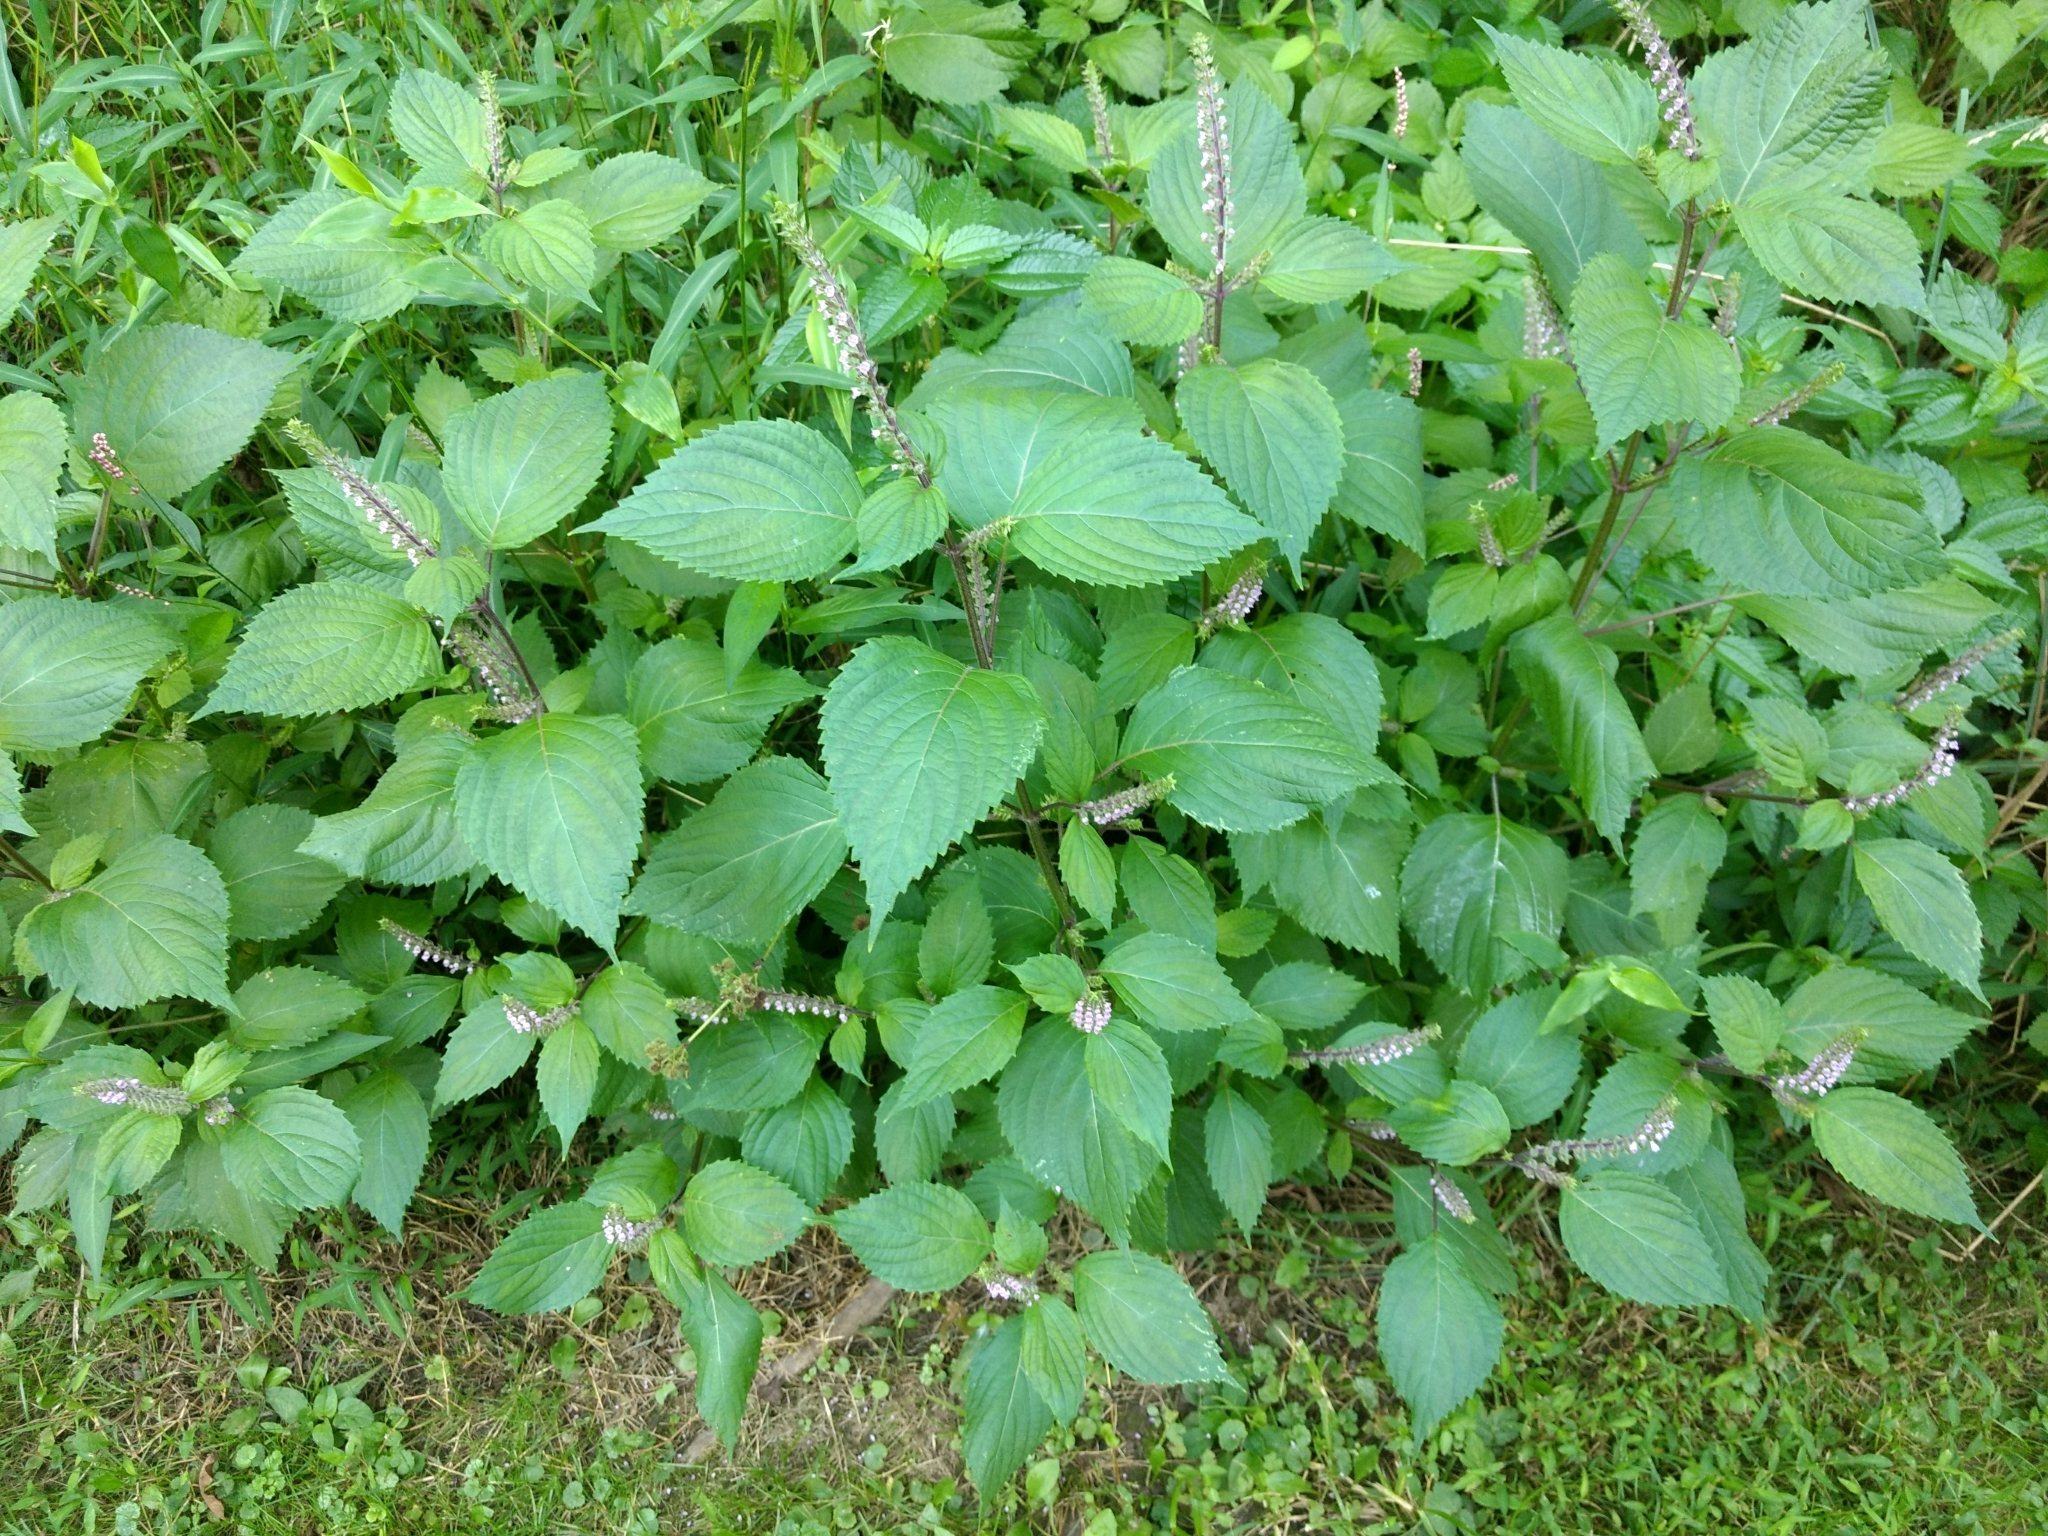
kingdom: Plantae
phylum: Tracheophyta
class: Magnoliopsida
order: Lamiales
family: Lamiaceae
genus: Perilla
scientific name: Perilla frutescens
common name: Perilla
